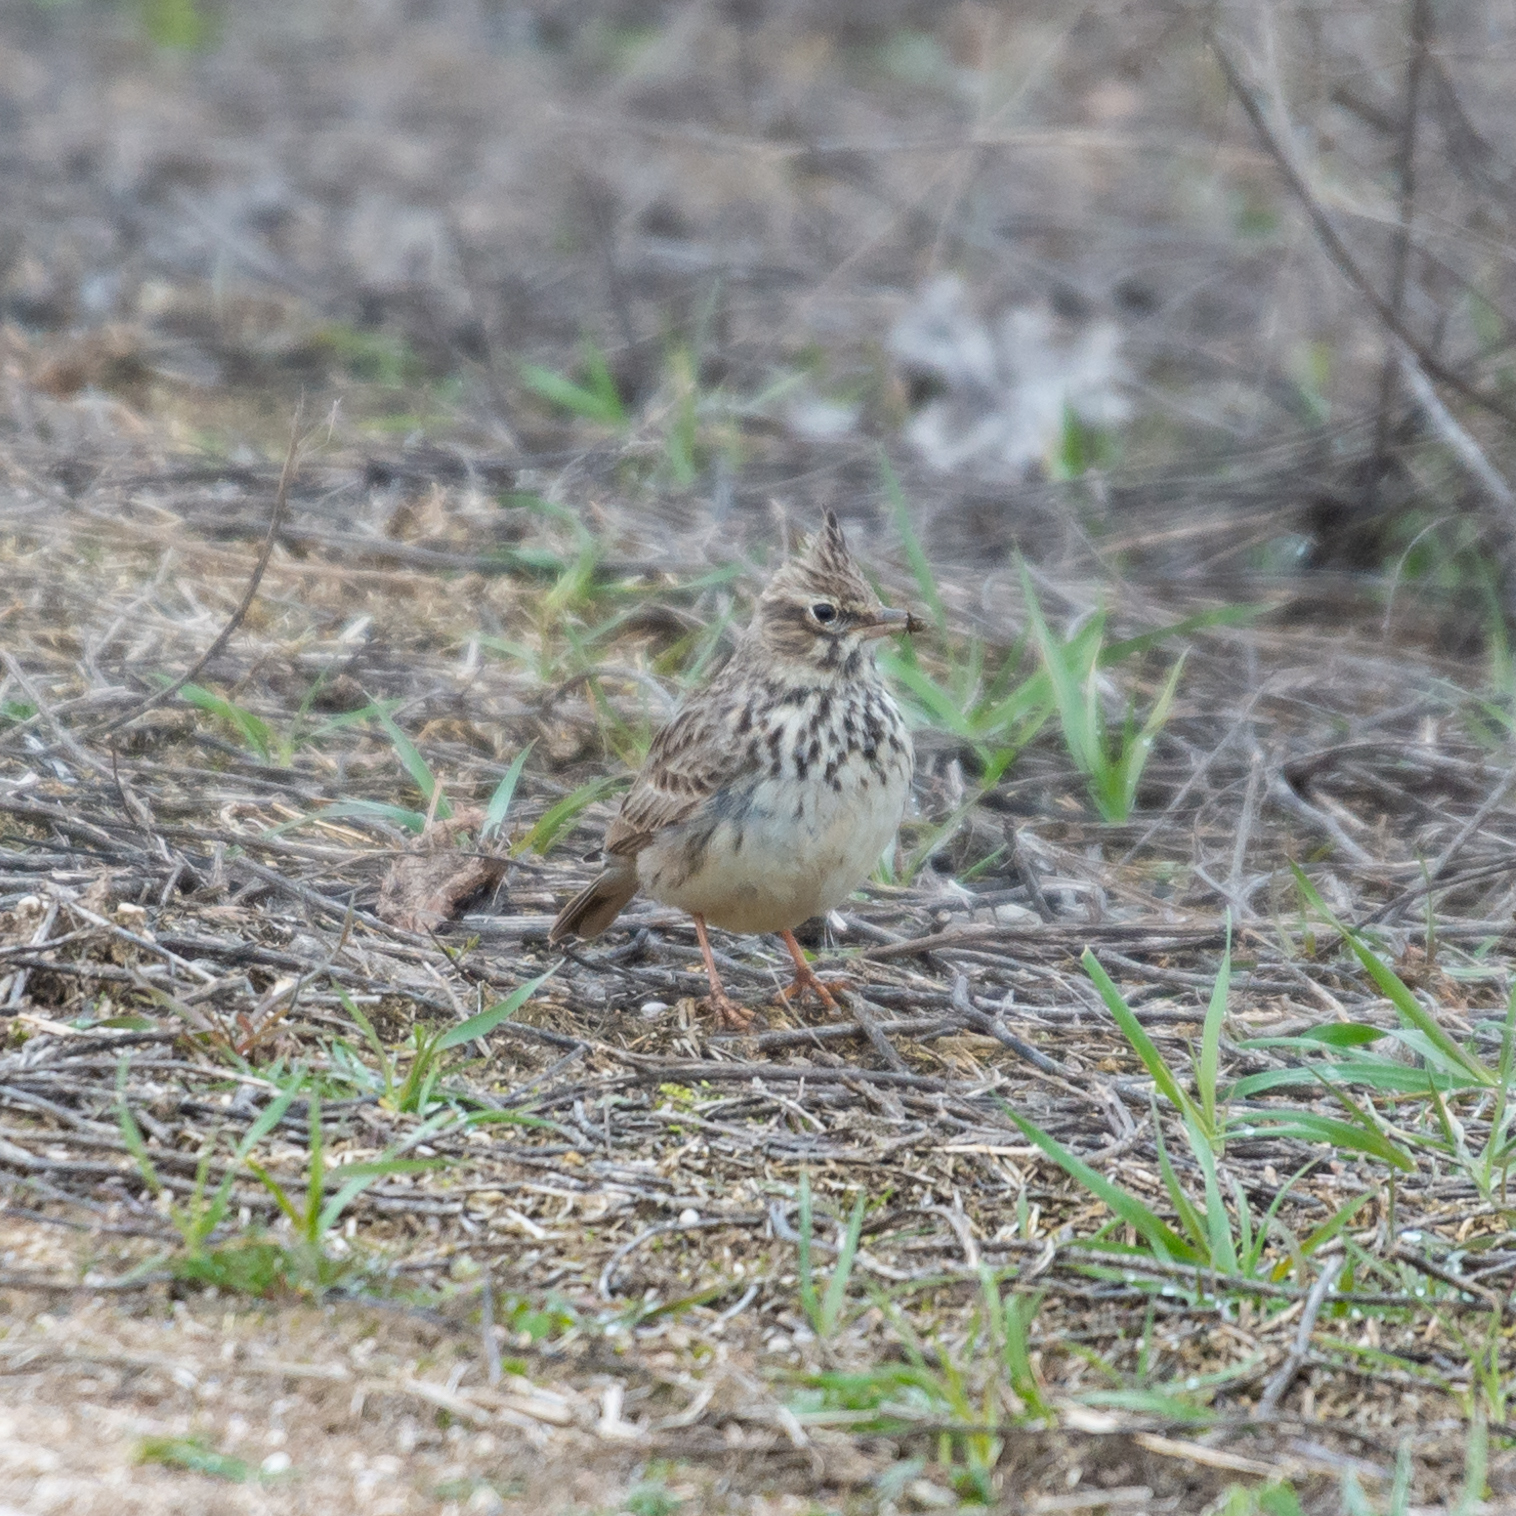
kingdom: Animalia
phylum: Chordata
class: Aves
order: Passeriformes
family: Alaudidae
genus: Galerida
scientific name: Galerida theklae
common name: Thekla lark
